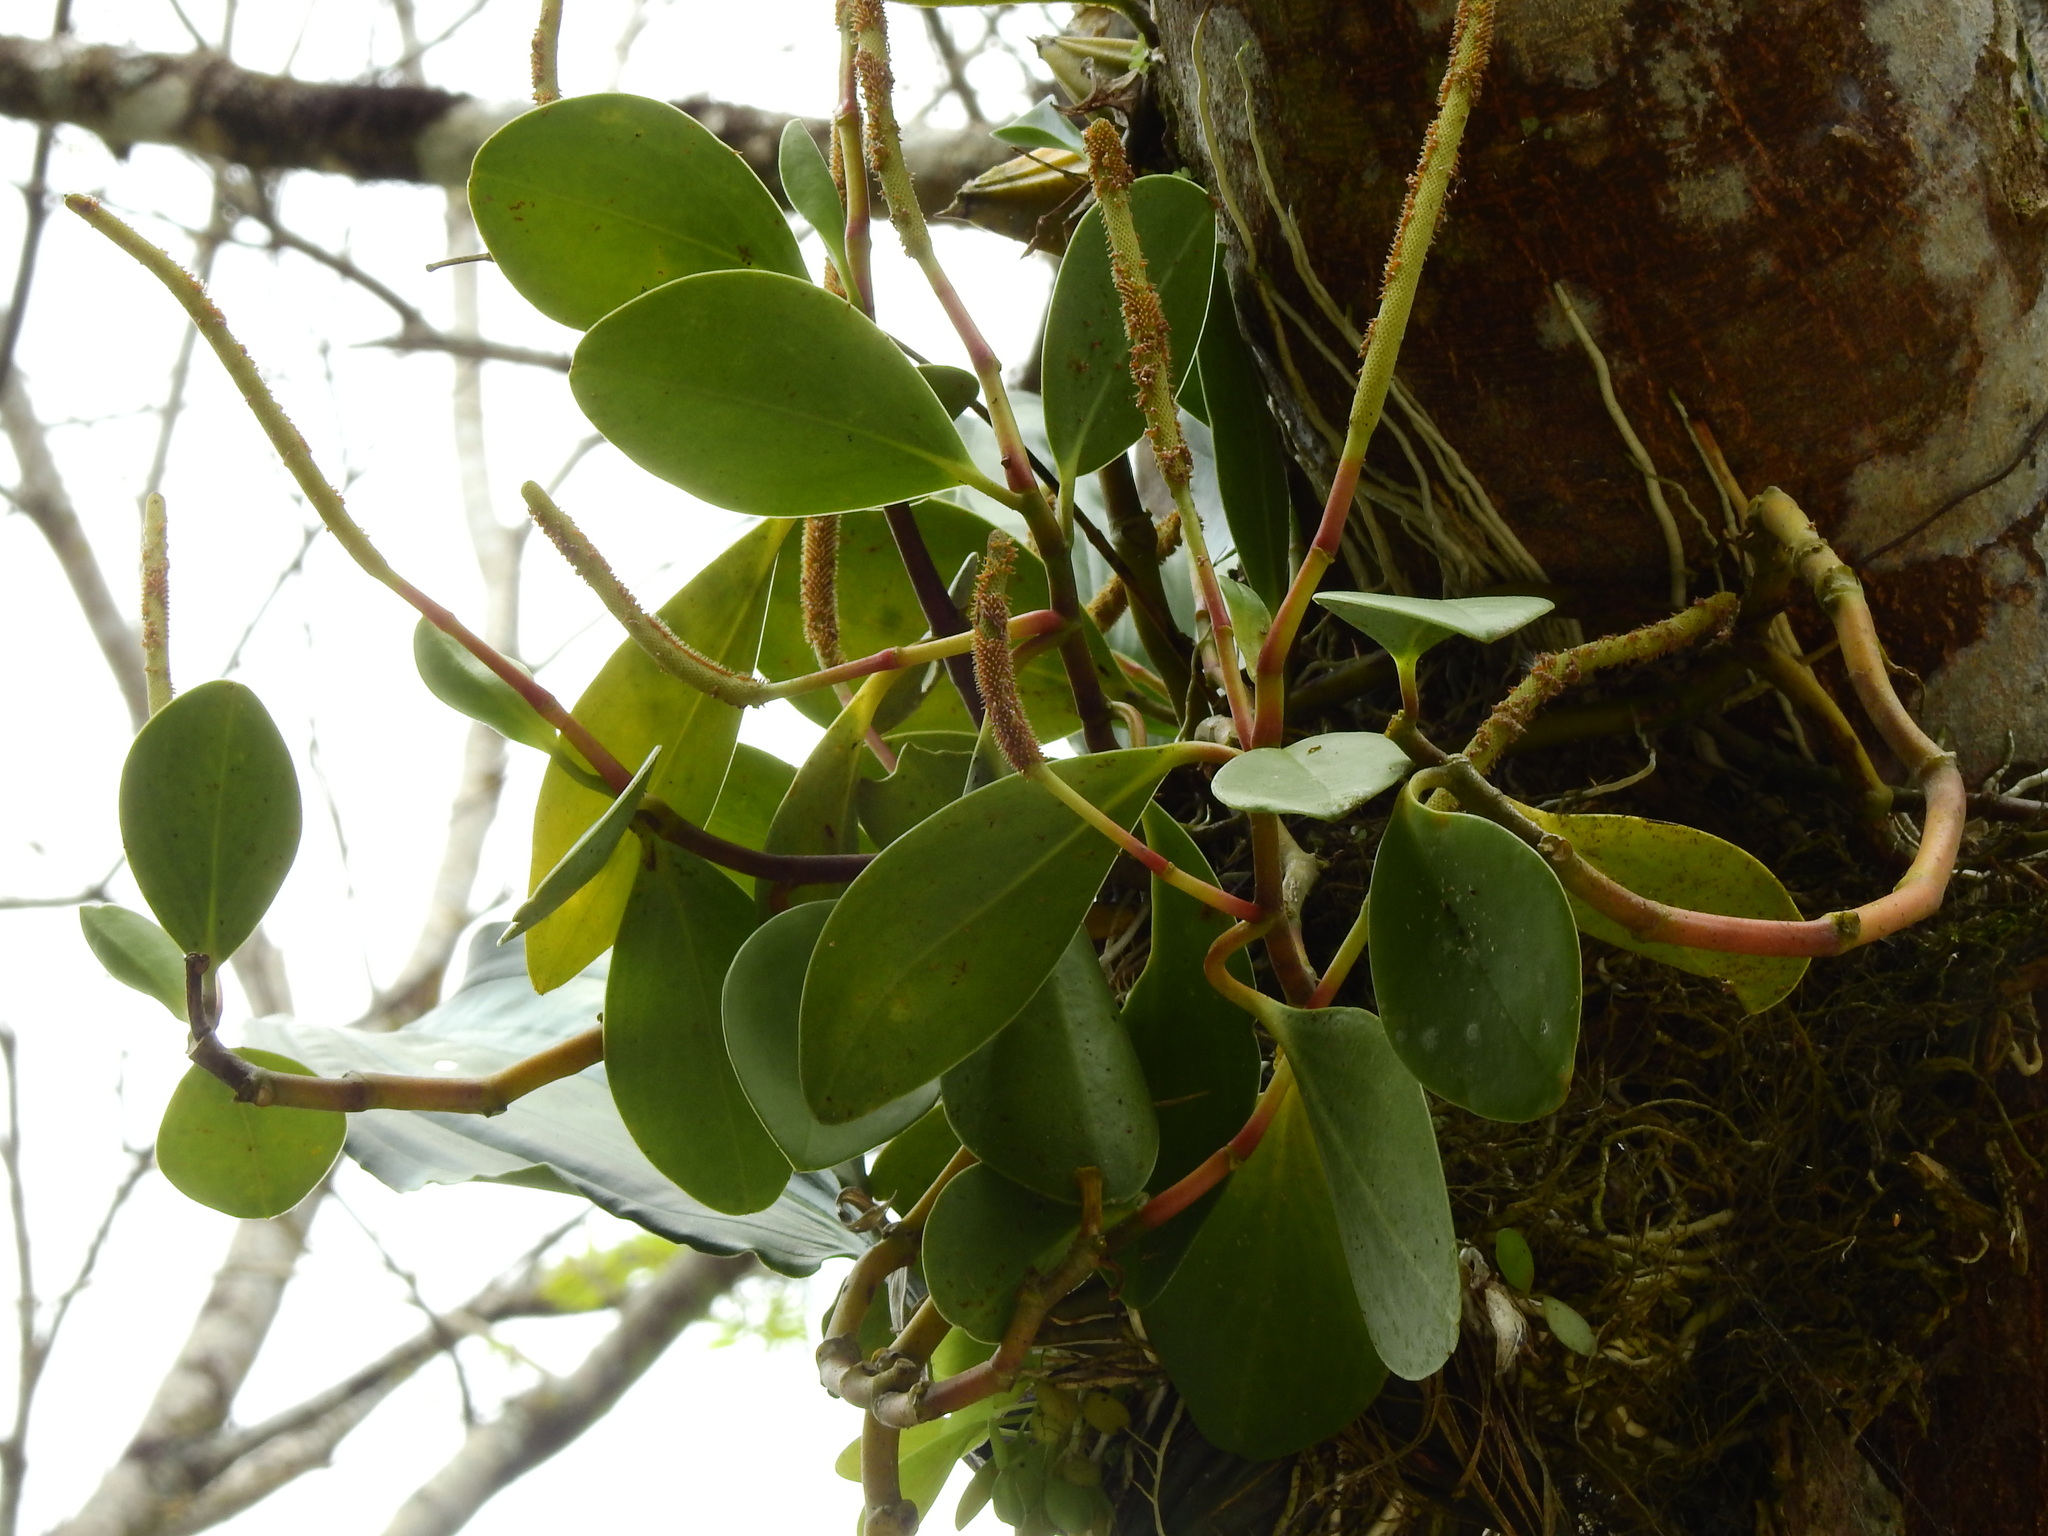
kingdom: Plantae
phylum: Tracheophyta
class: Magnoliopsida
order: Piperales
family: Piperaceae
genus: Peperomia
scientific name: Peperomia obtusifolia
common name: Baby rubberplant
